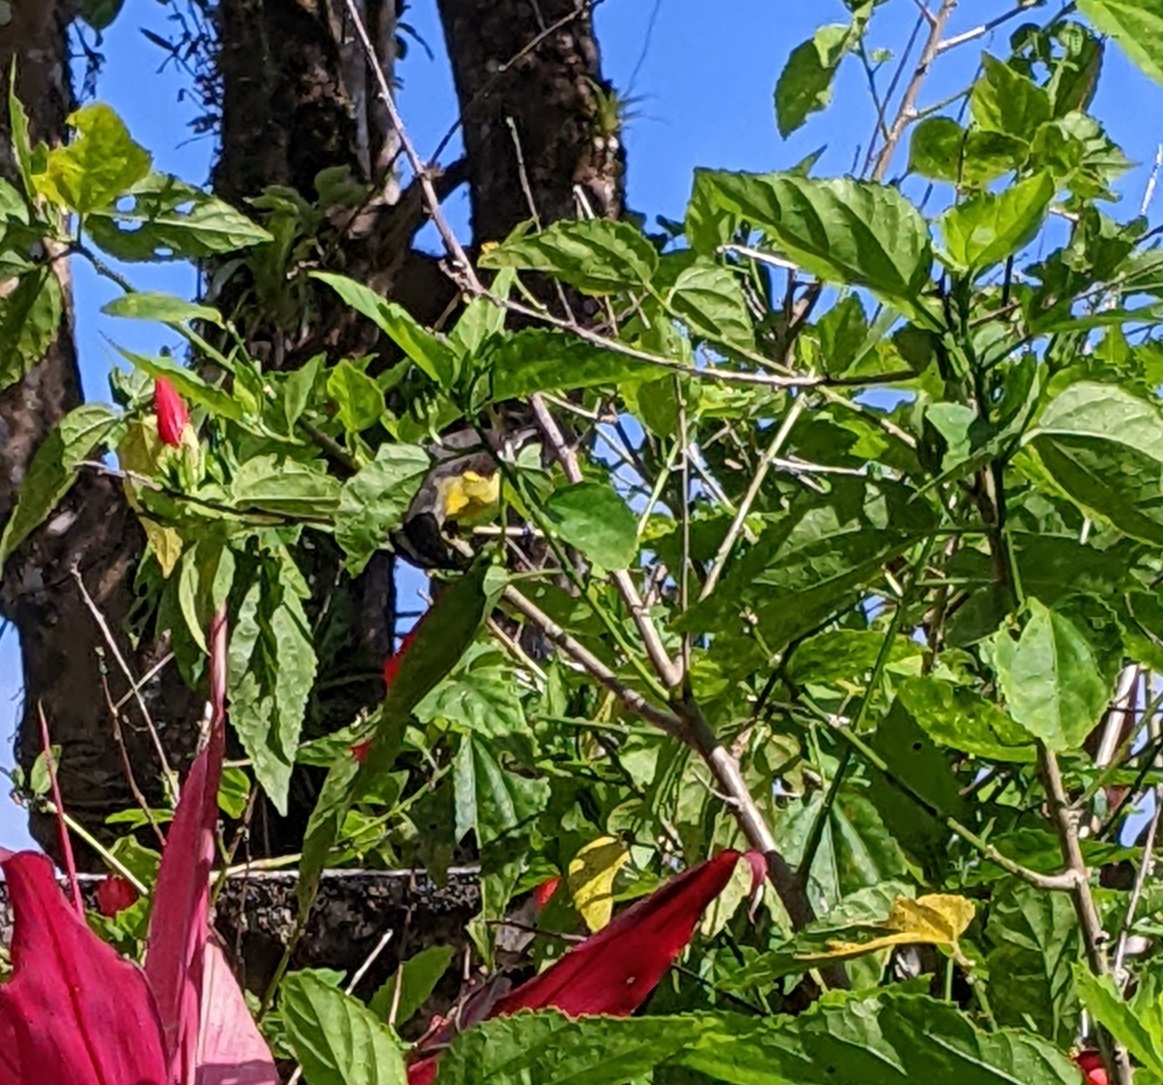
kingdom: Animalia
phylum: Chordata
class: Aves
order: Passeriformes
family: Thraupidae
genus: Coereba
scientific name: Coereba flaveola
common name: Bananaquit
